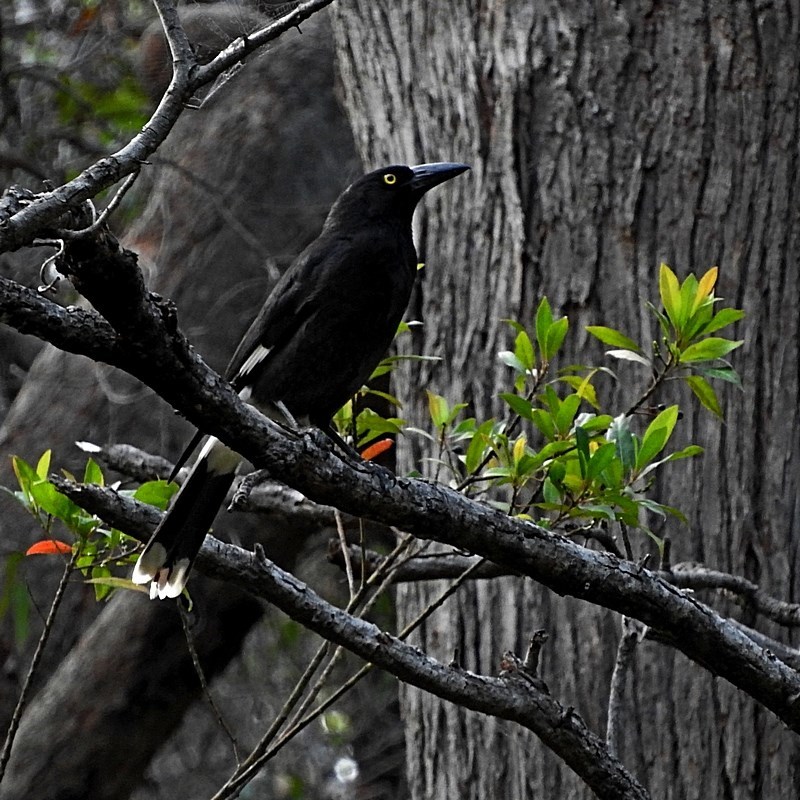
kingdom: Animalia
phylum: Chordata
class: Aves
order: Passeriformes
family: Cracticidae
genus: Strepera
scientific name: Strepera graculina
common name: Pied currawong
